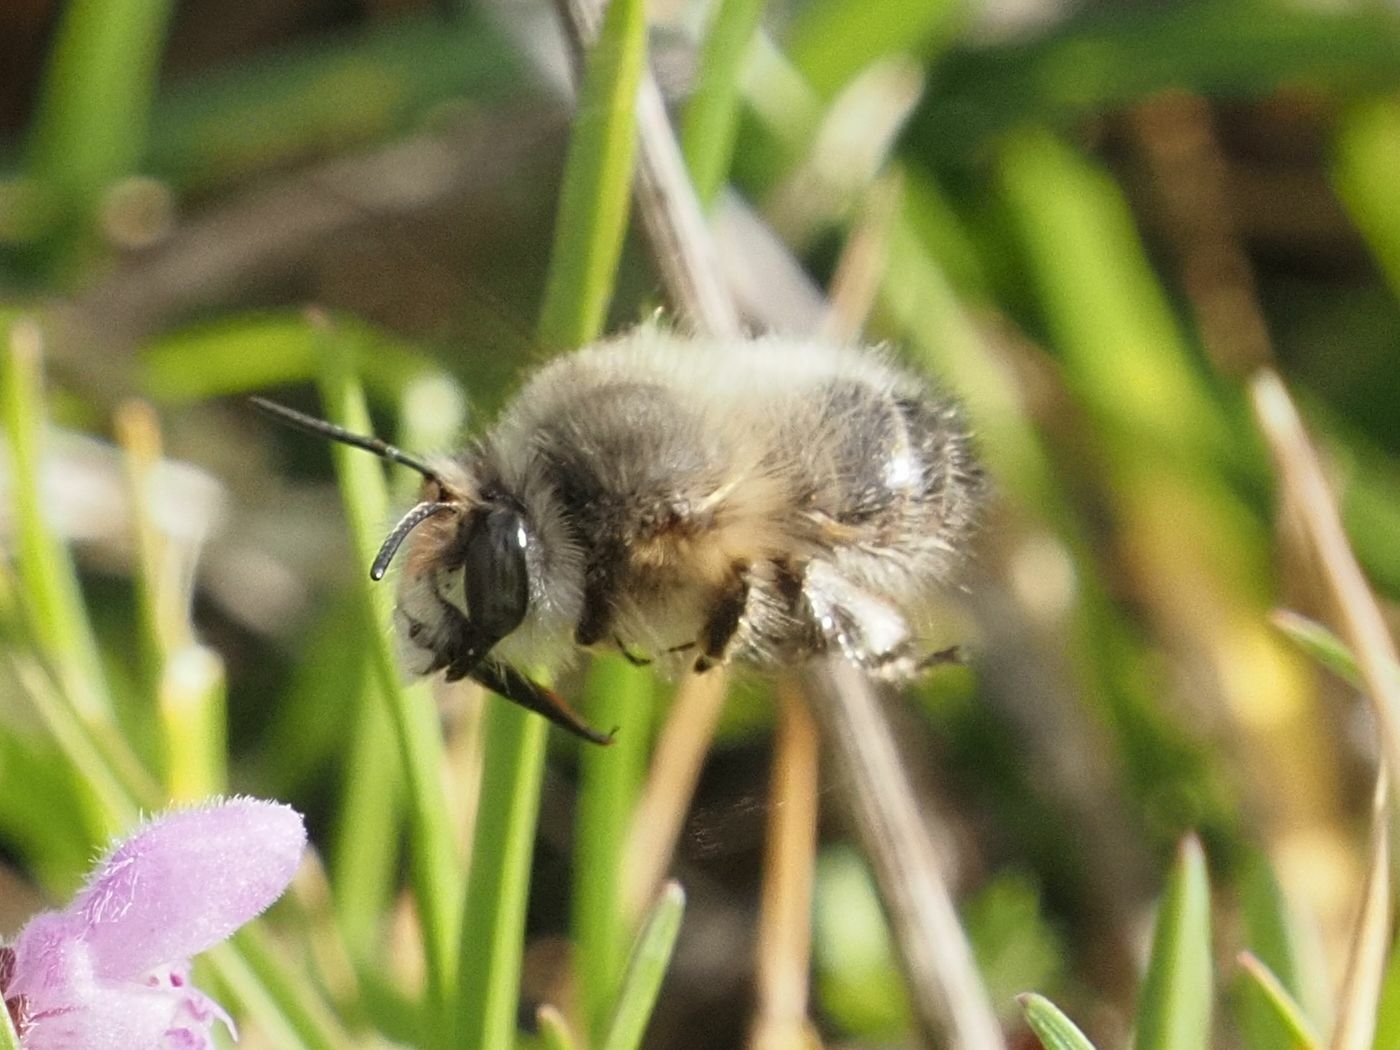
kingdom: Animalia
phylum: Arthropoda
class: Insecta
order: Hymenoptera
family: Apidae
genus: Anthophora
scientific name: Anthophora plumipes
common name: Hairy-footed flower bee
